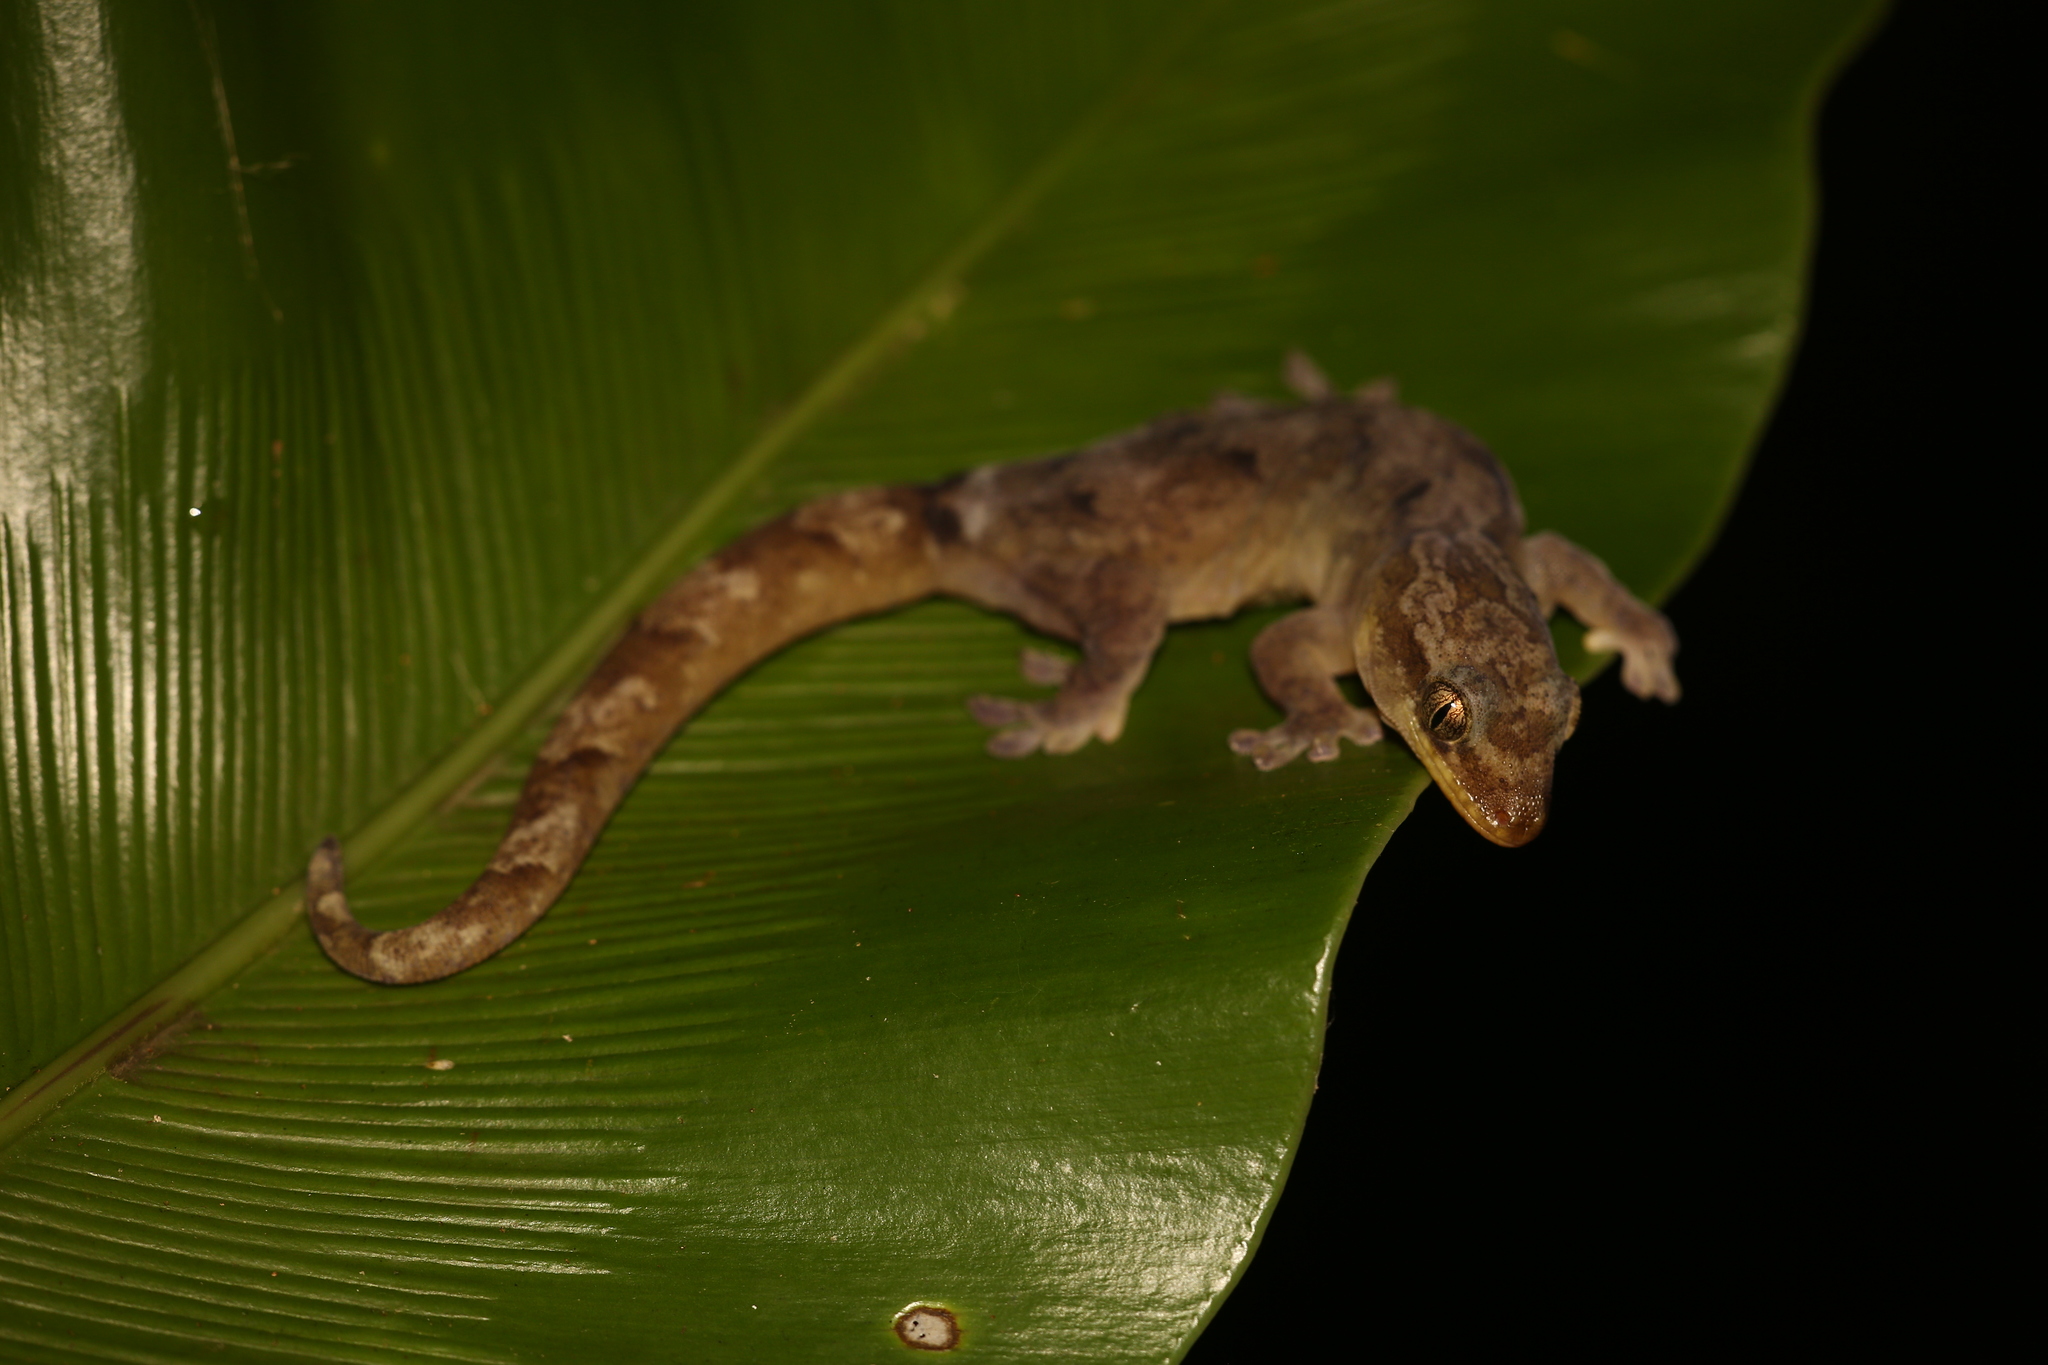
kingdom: Animalia
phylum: Chordata
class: Squamata
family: Diplodactylidae
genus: Bavayia
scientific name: Bavayia crassicollis
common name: Strand bavayia
